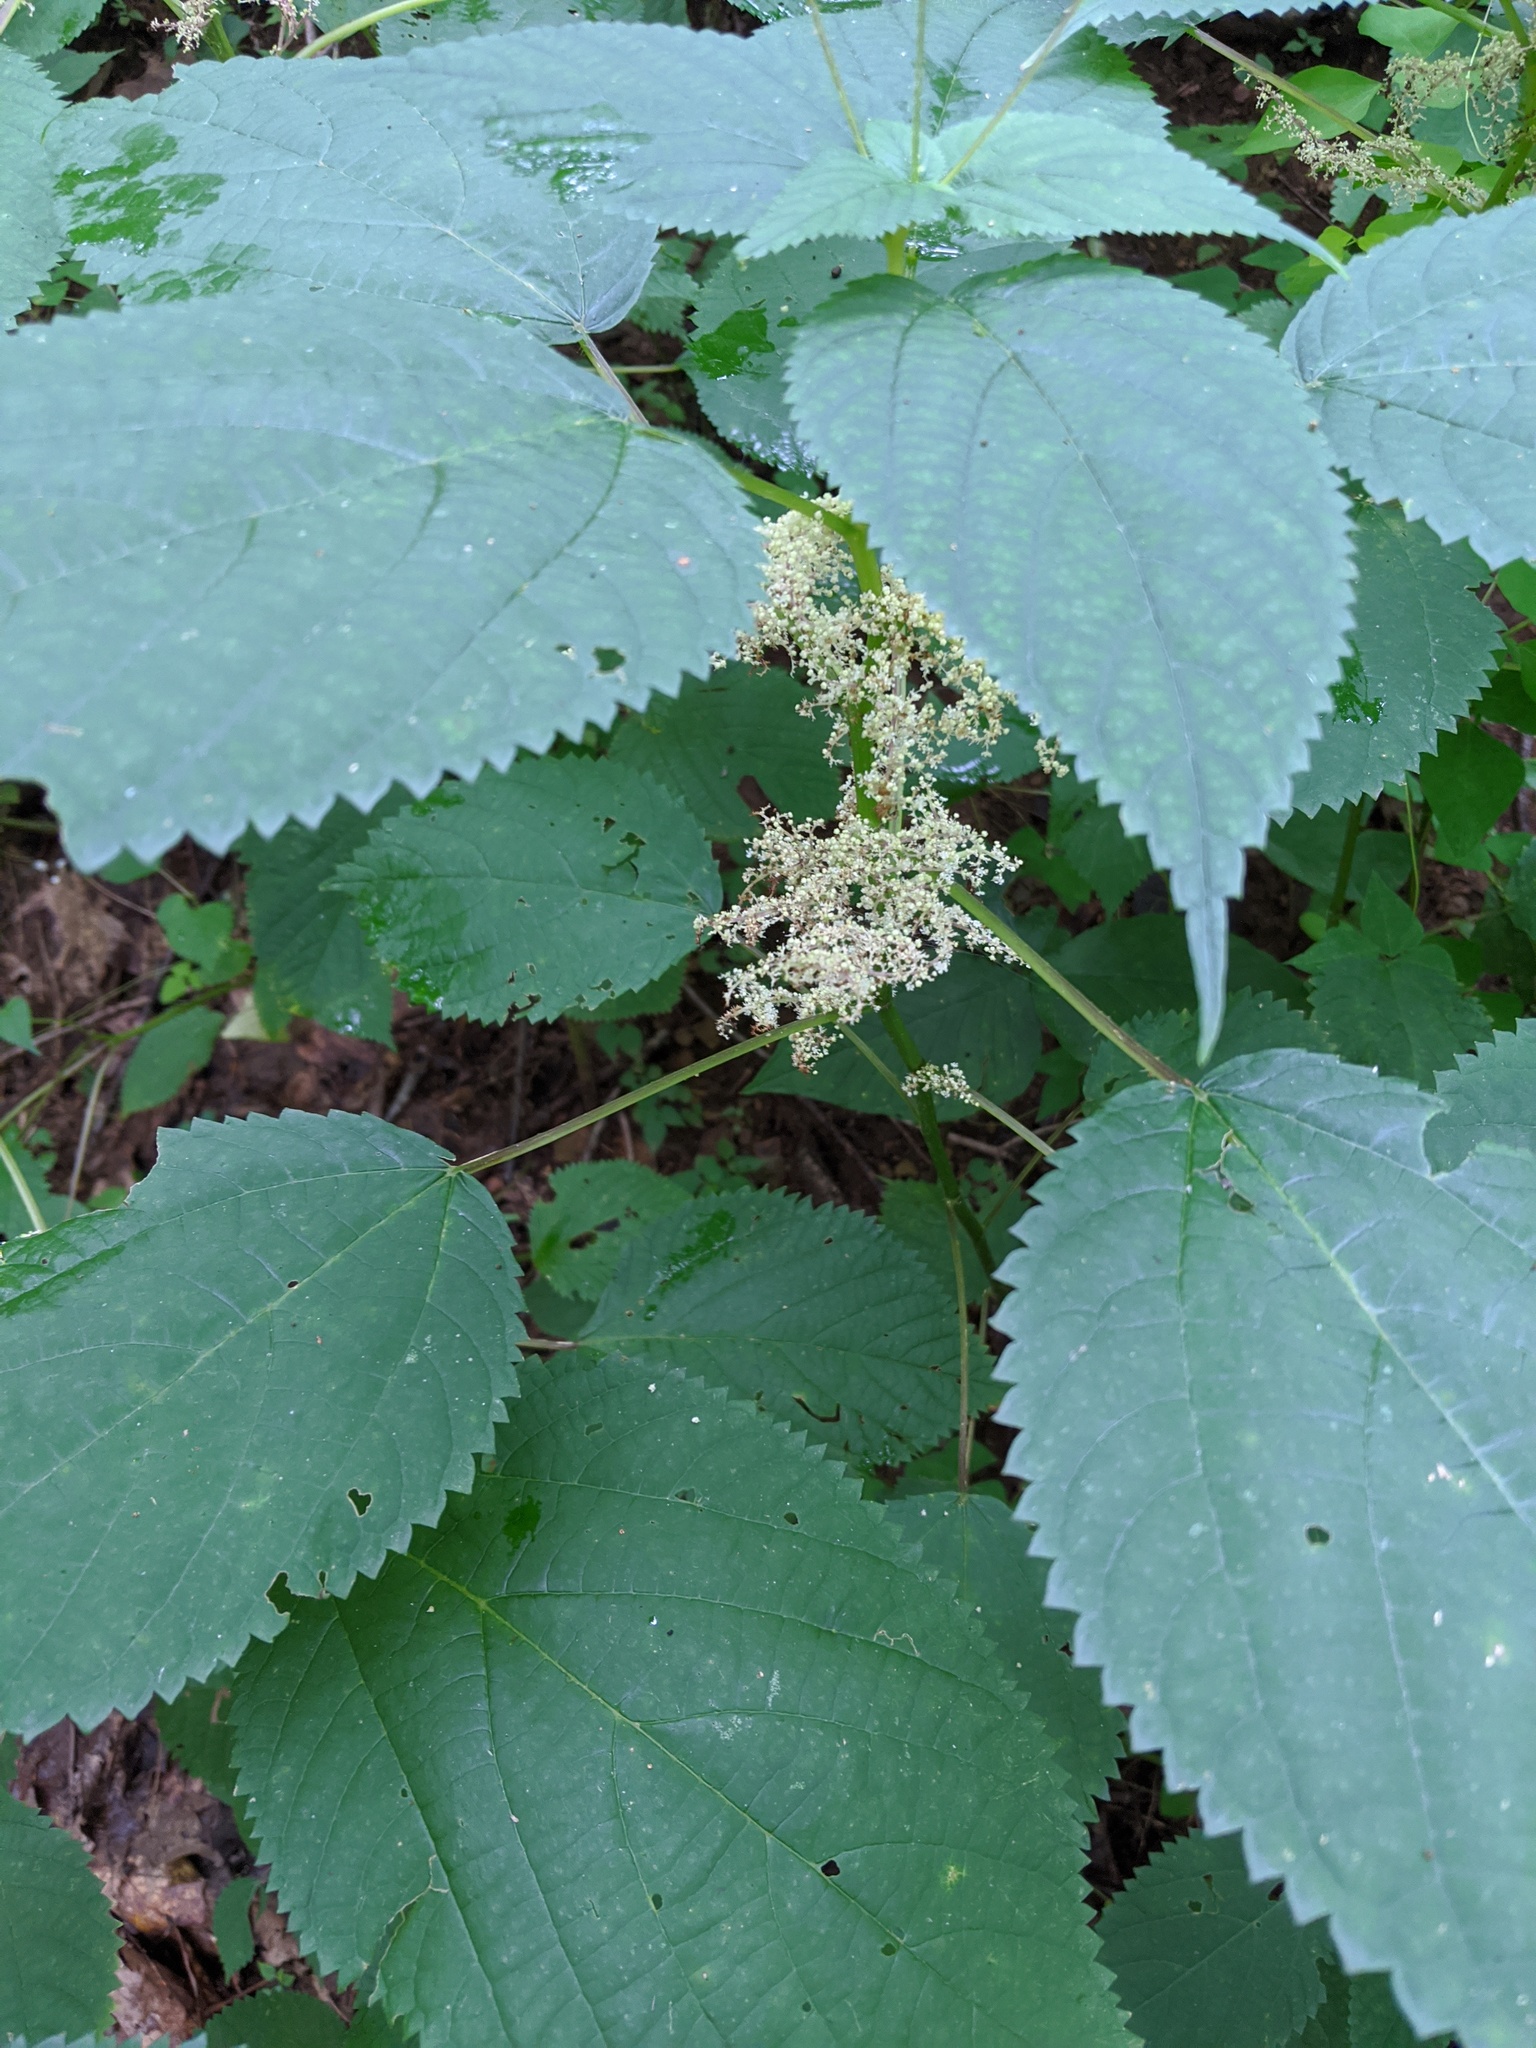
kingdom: Plantae
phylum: Tracheophyta
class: Magnoliopsida
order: Rosales
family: Urticaceae
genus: Laportea
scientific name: Laportea canadensis
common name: Canada nettle
